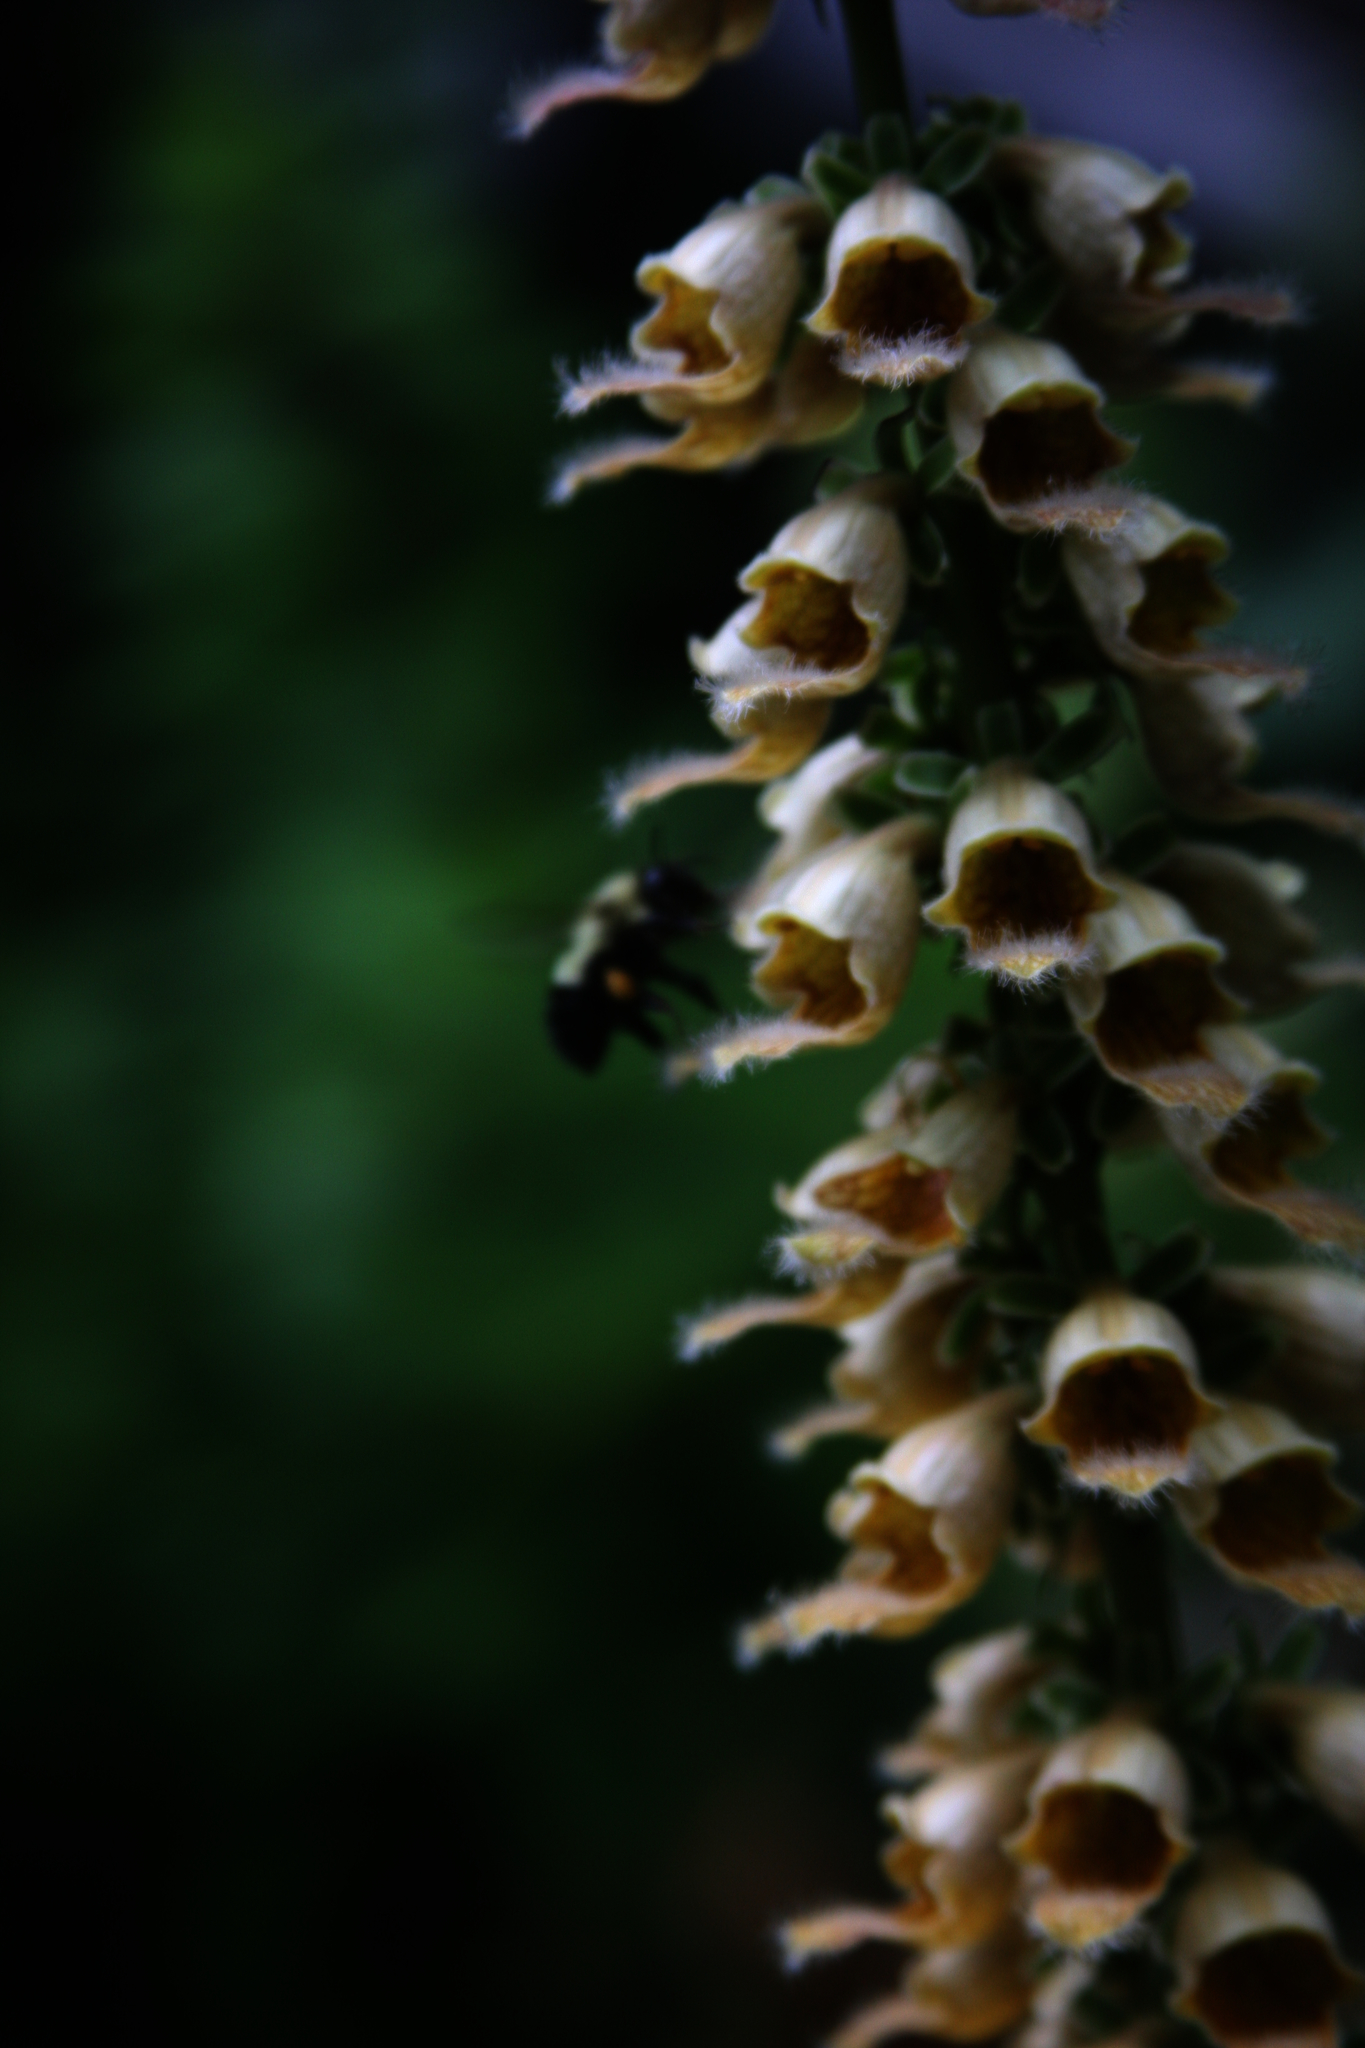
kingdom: Animalia
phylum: Arthropoda
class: Insecta
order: Hymenoptera
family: Apidae
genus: Pyrobombus
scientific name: Pyrobombus
